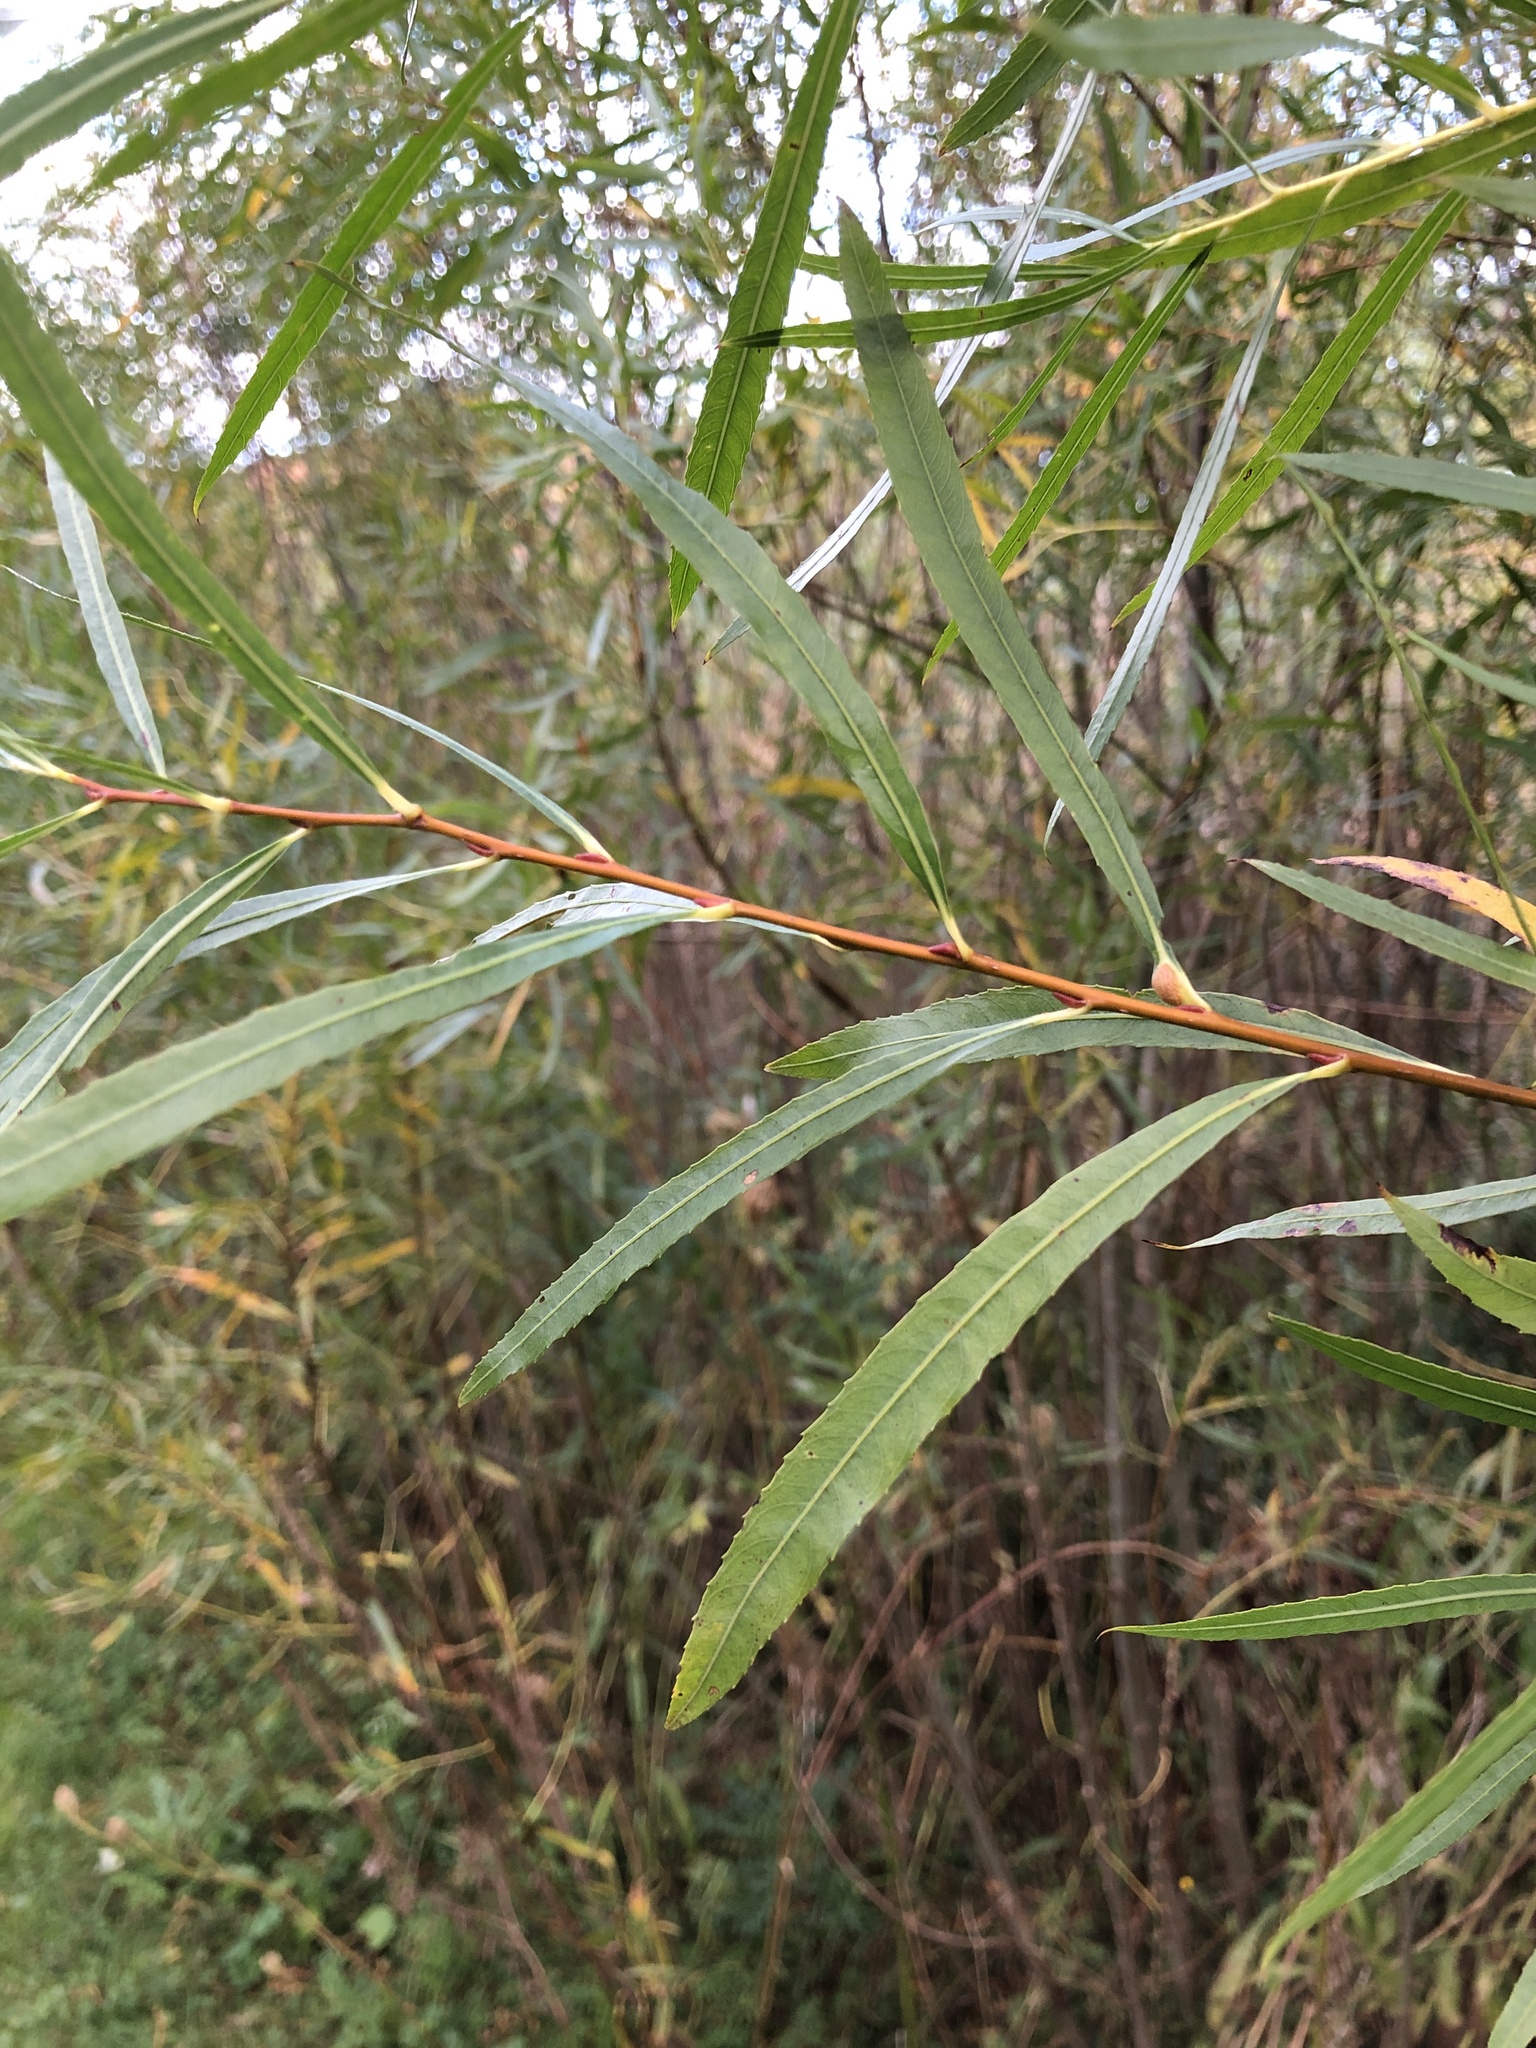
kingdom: Plantae
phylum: Tracheophyta
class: Magnoliopsida
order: Malpighiales
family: Salicaceae
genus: Salix
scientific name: Salix interior
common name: Sandbar willow
